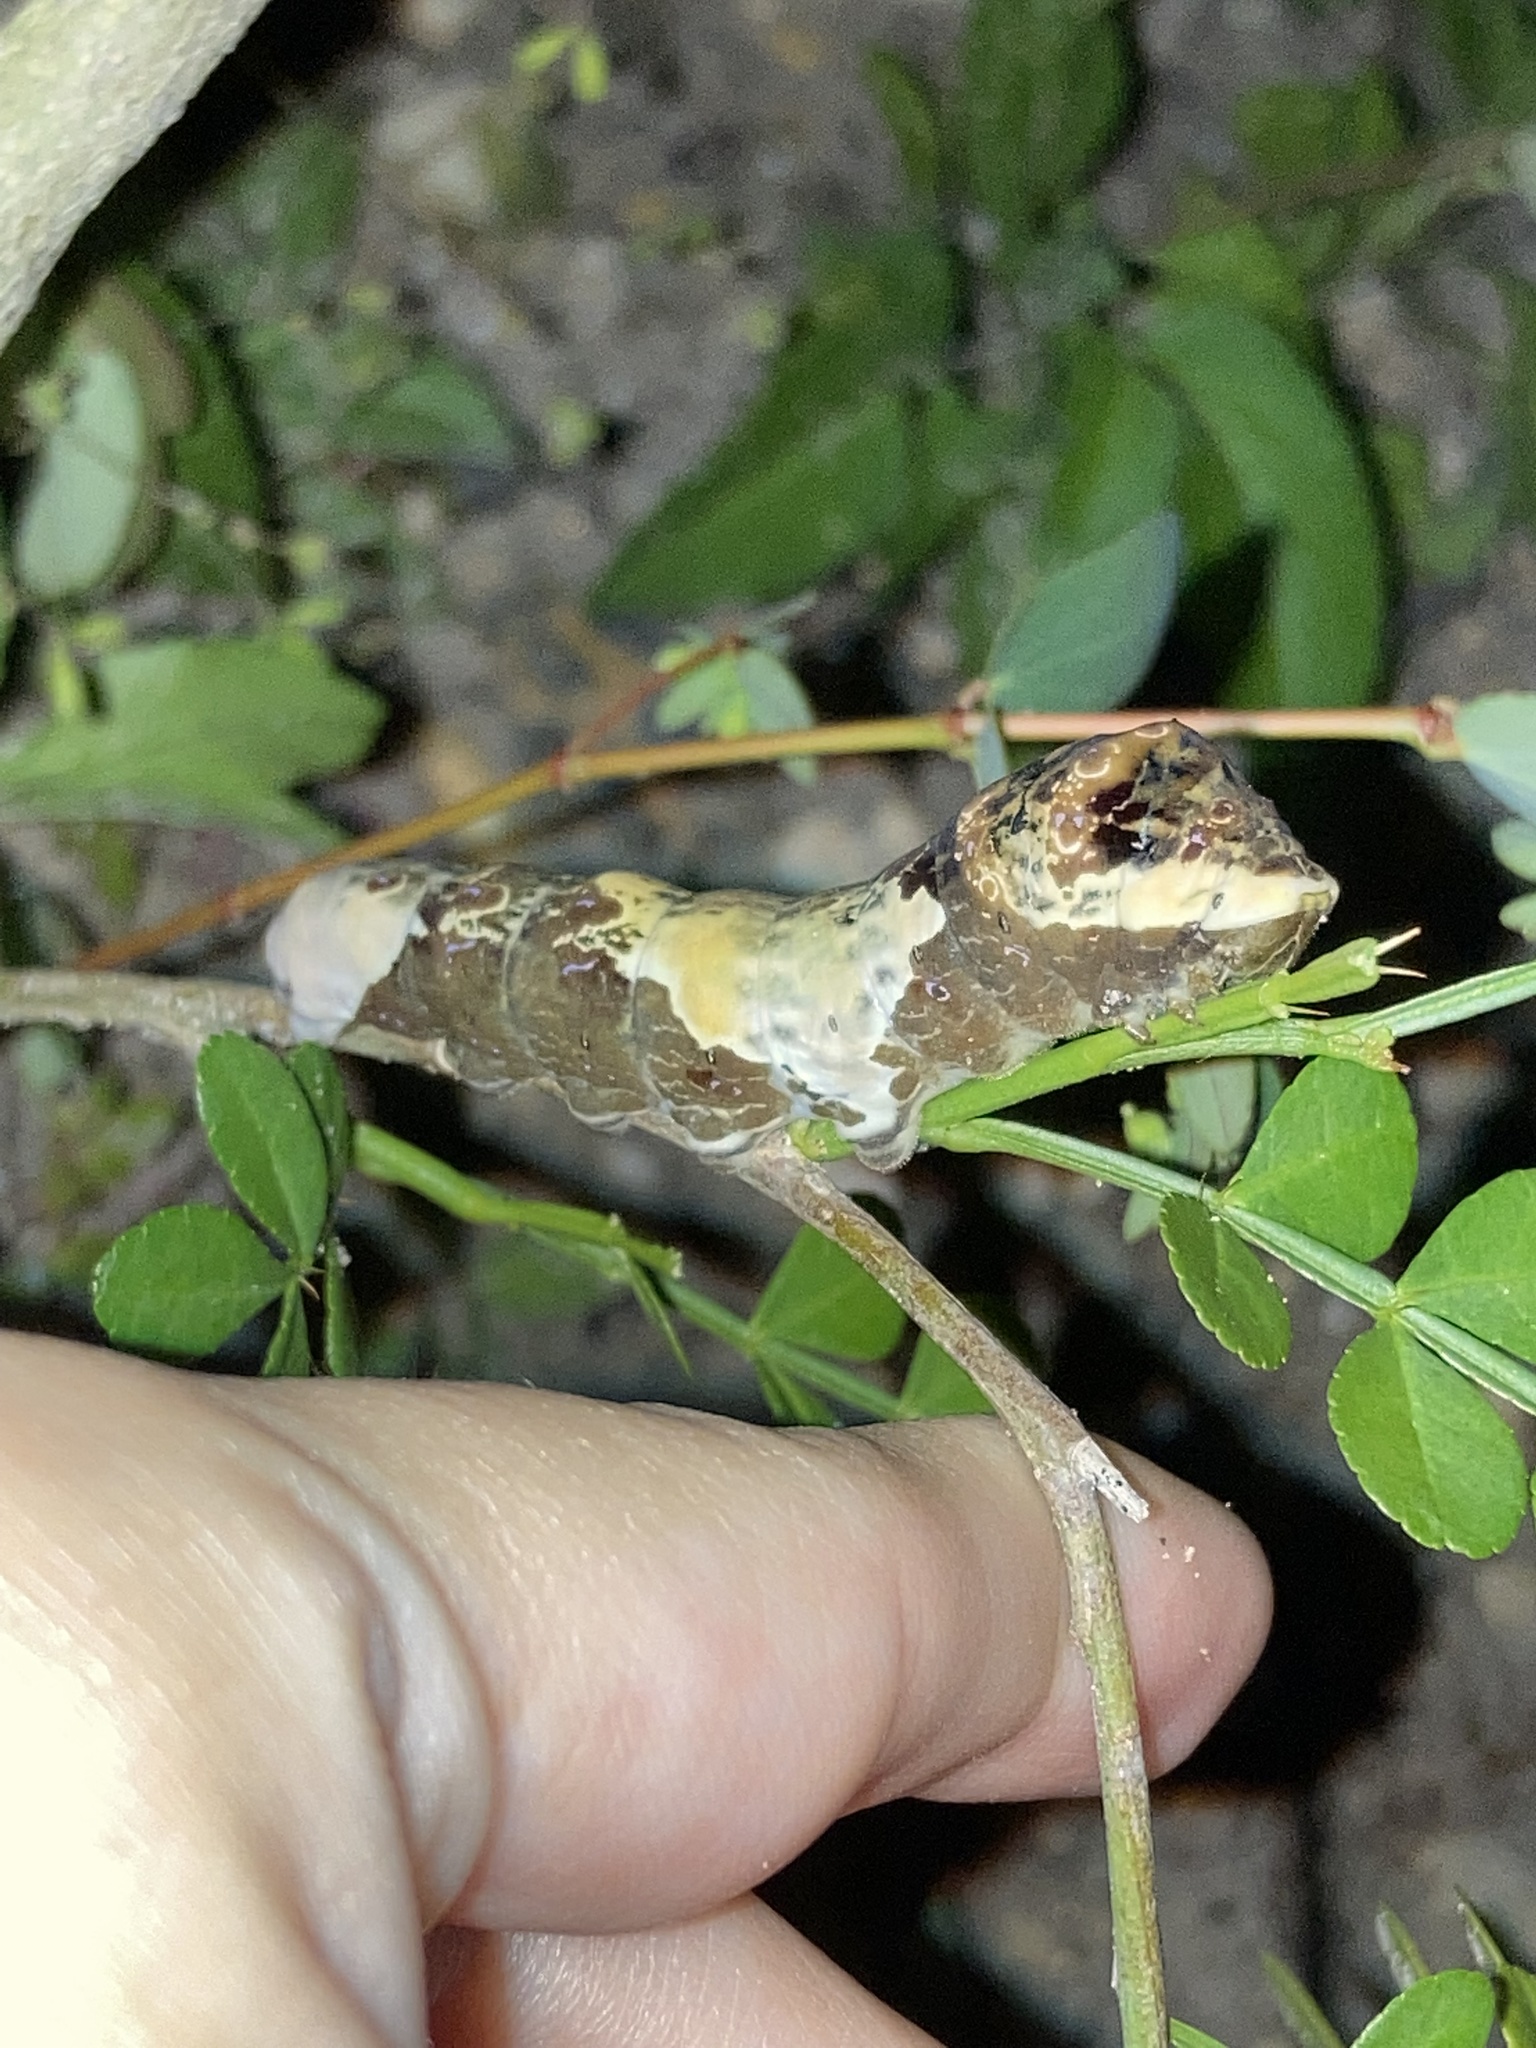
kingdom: Animalia
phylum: Arthropoda
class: Insecta
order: Lepidoptera
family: Papilionidae
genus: Papilio
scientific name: Papilio cresphontes
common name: Giant swallowtail
